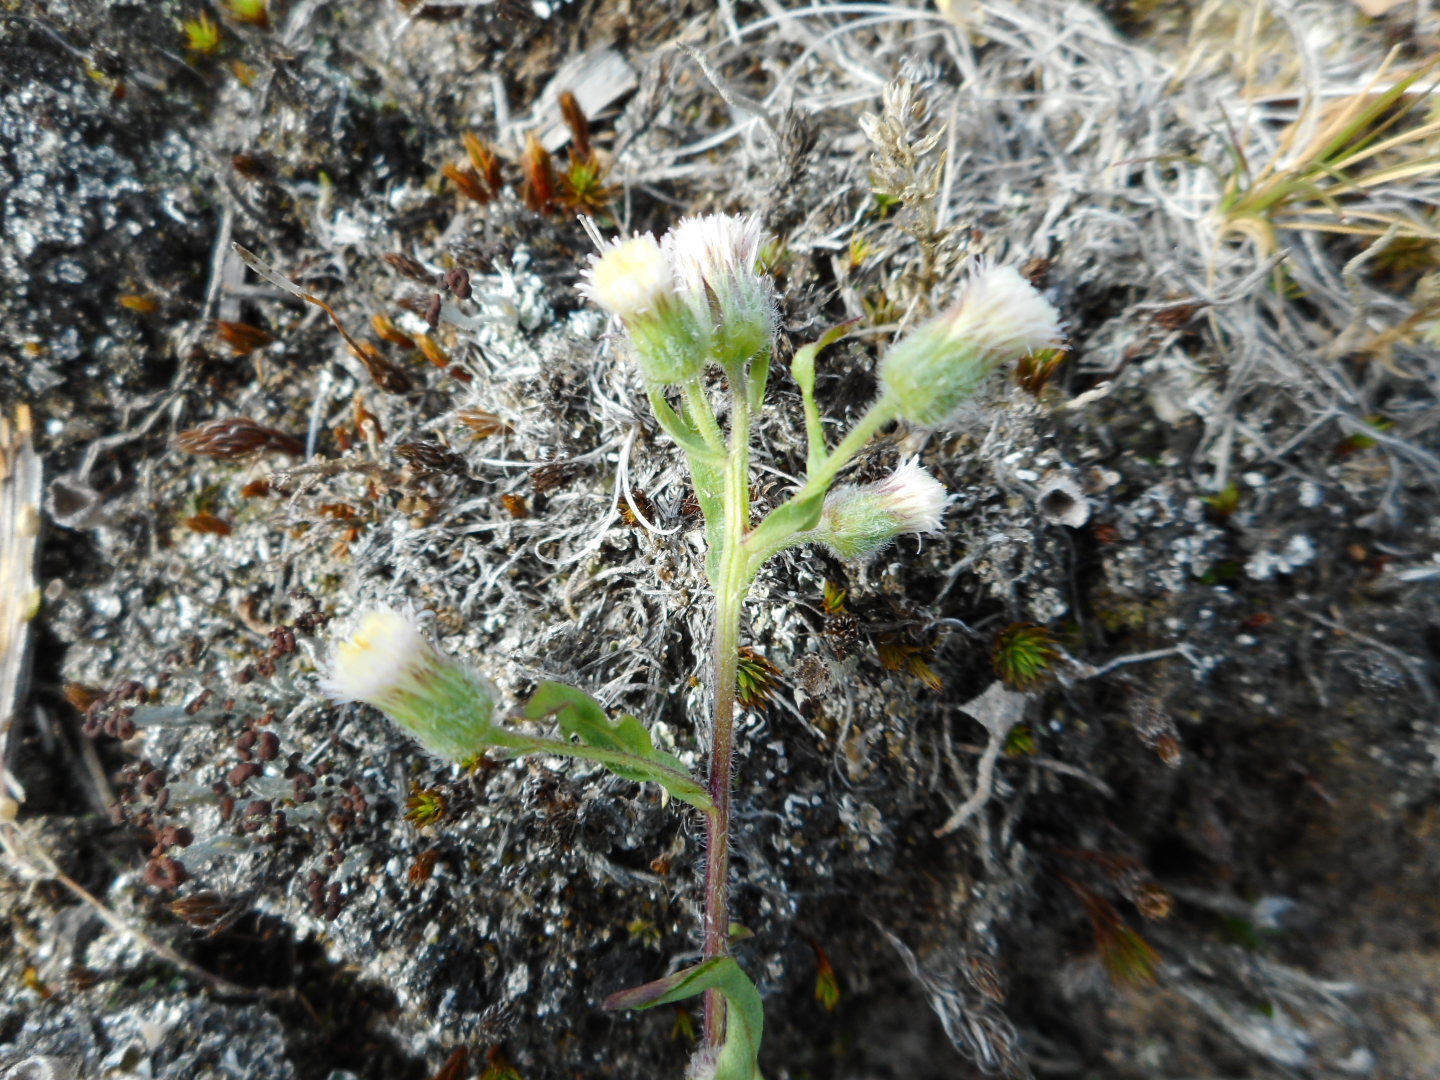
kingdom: Plantae
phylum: Tracheophyta
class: Magnoliopsida
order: Asterales
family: Asteraceae
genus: Erigeron
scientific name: Erigeron acris
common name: Blue fleabane
